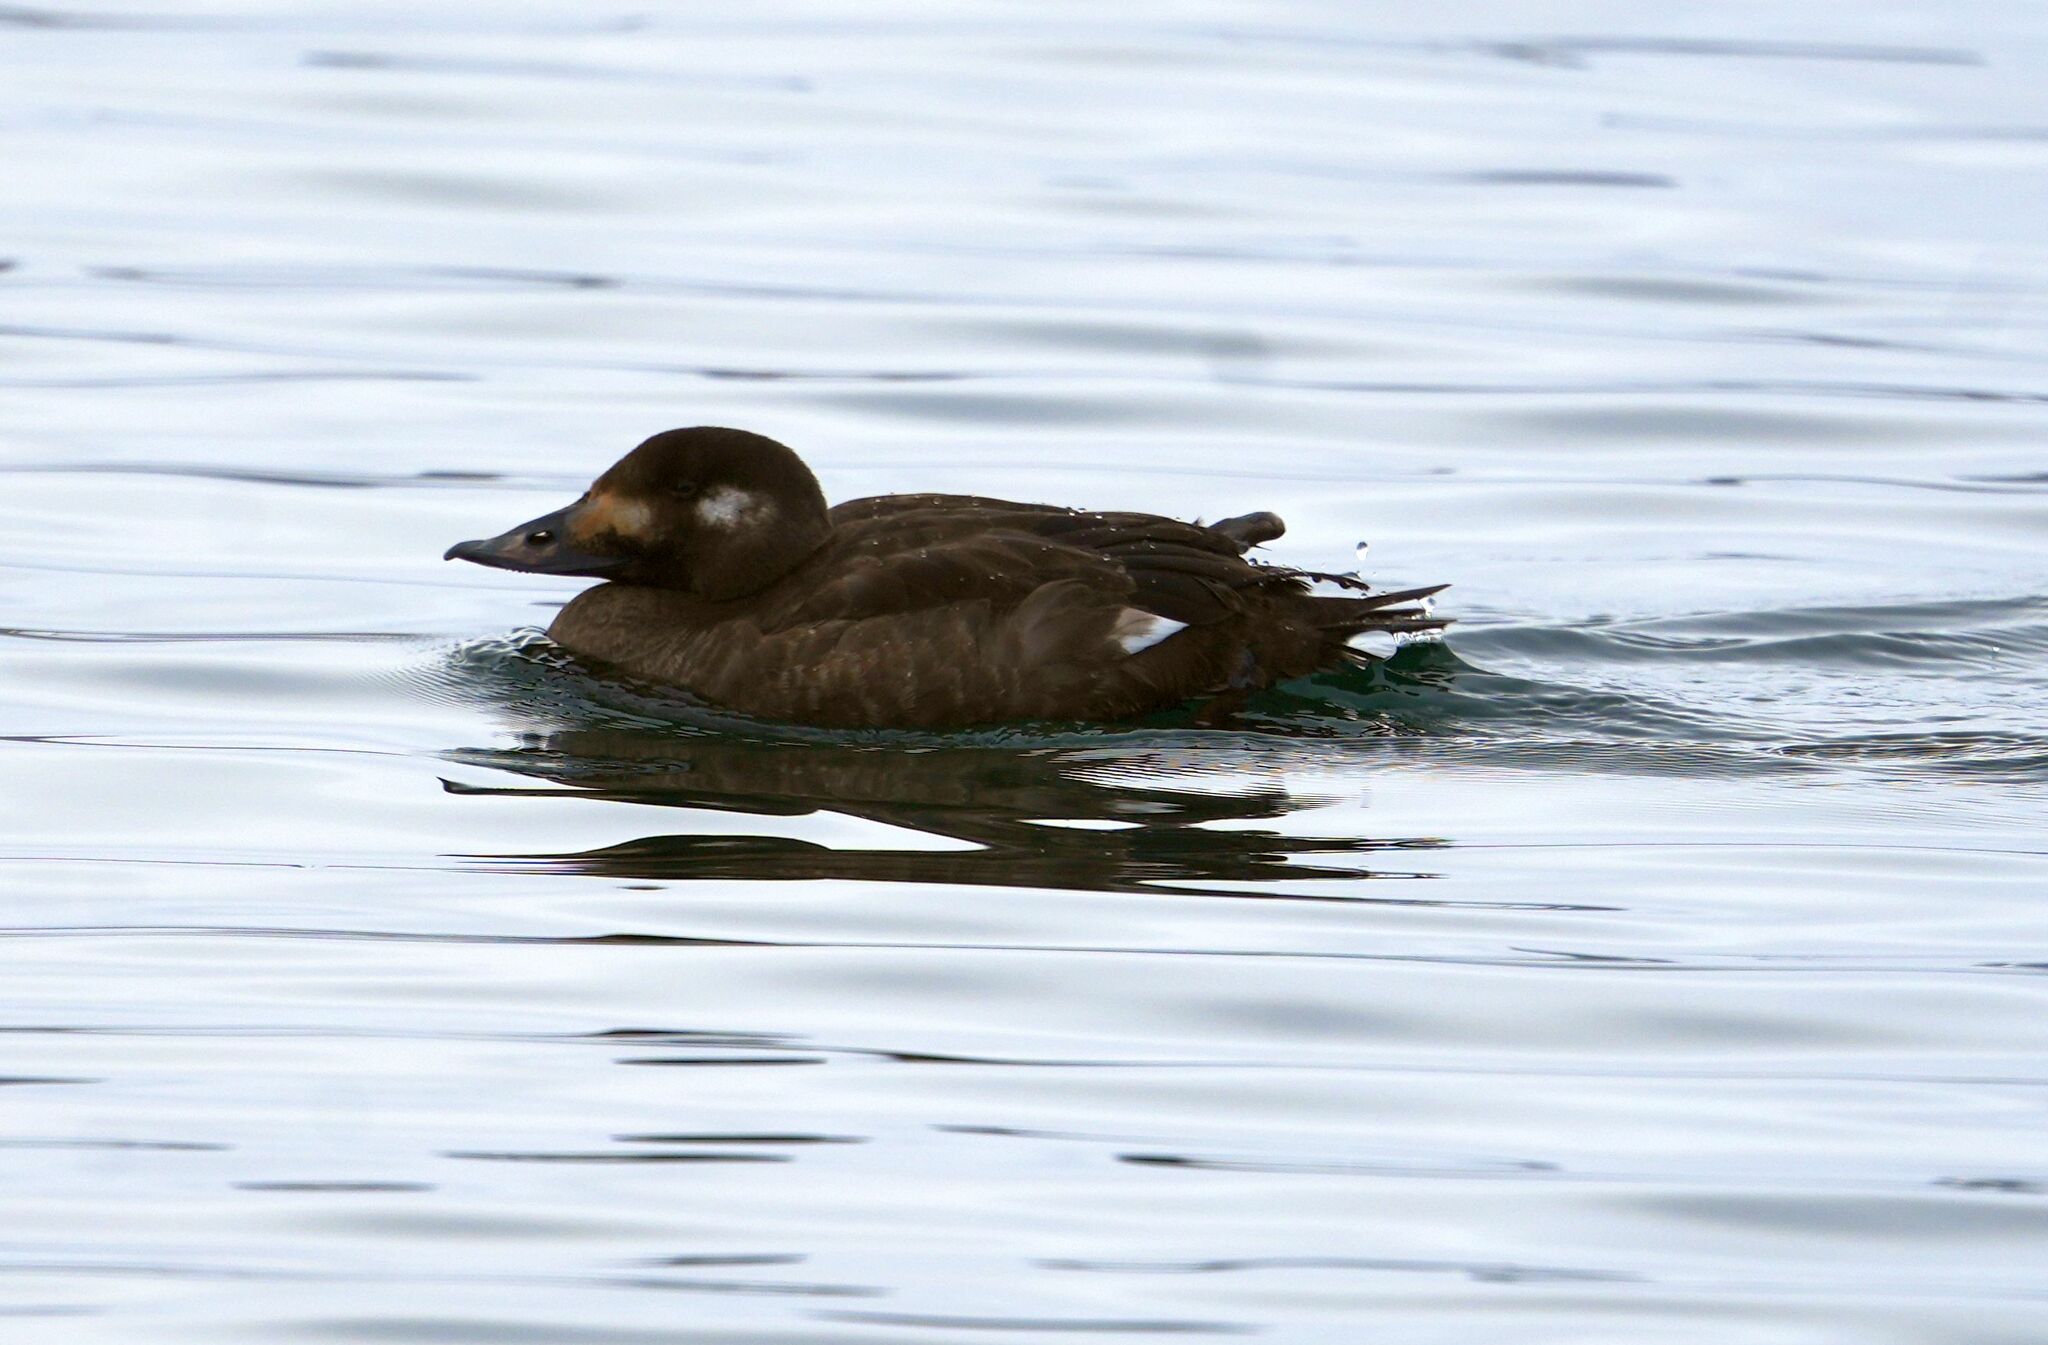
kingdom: Animalia
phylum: Chordata
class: Aves
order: Anseriformes
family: Anatidae
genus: Melanitta
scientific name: Melanitta deglandi
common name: White-winged scoter
